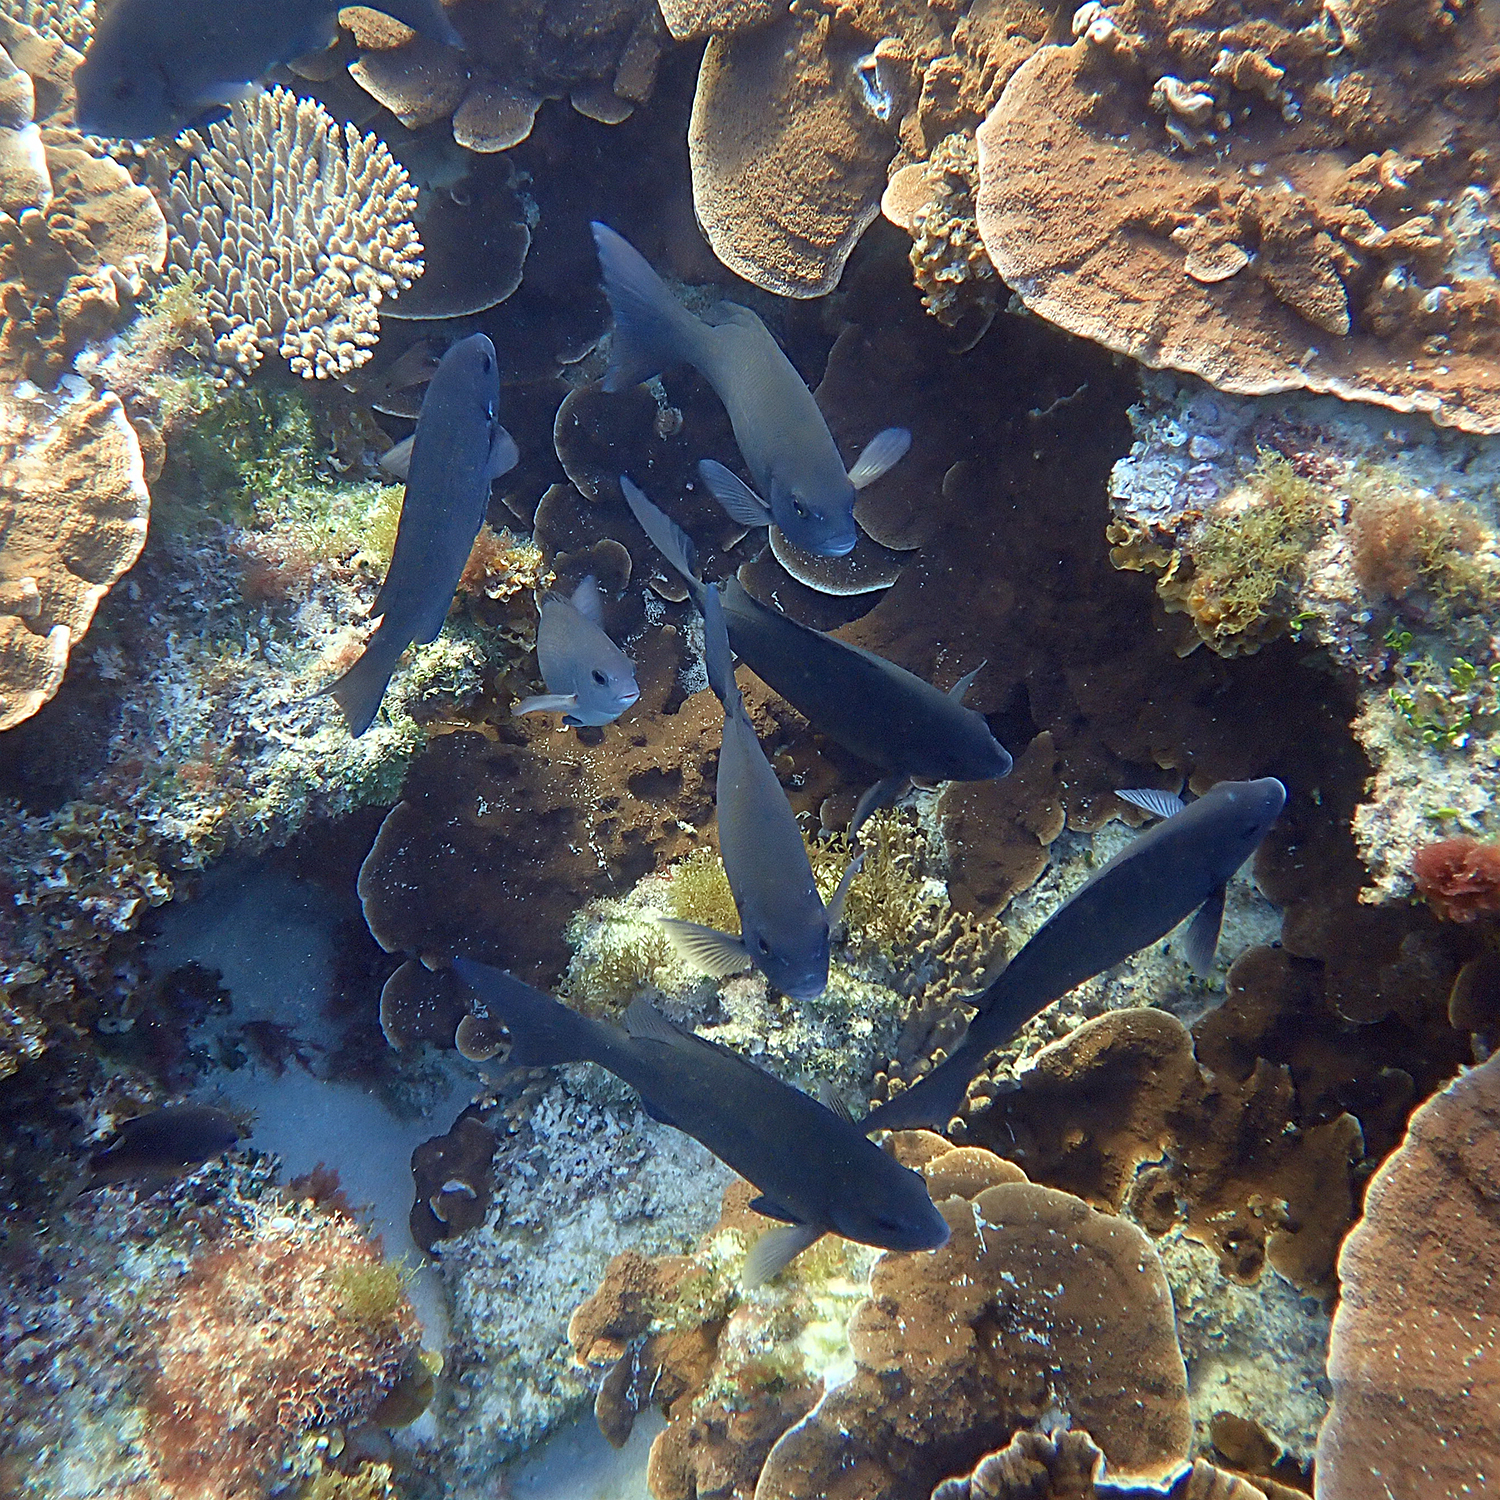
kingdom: Animalia
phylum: Chordata
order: Perciformes
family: Kyphosidae
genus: Girella
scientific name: Girella cyanea
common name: Bluefish
